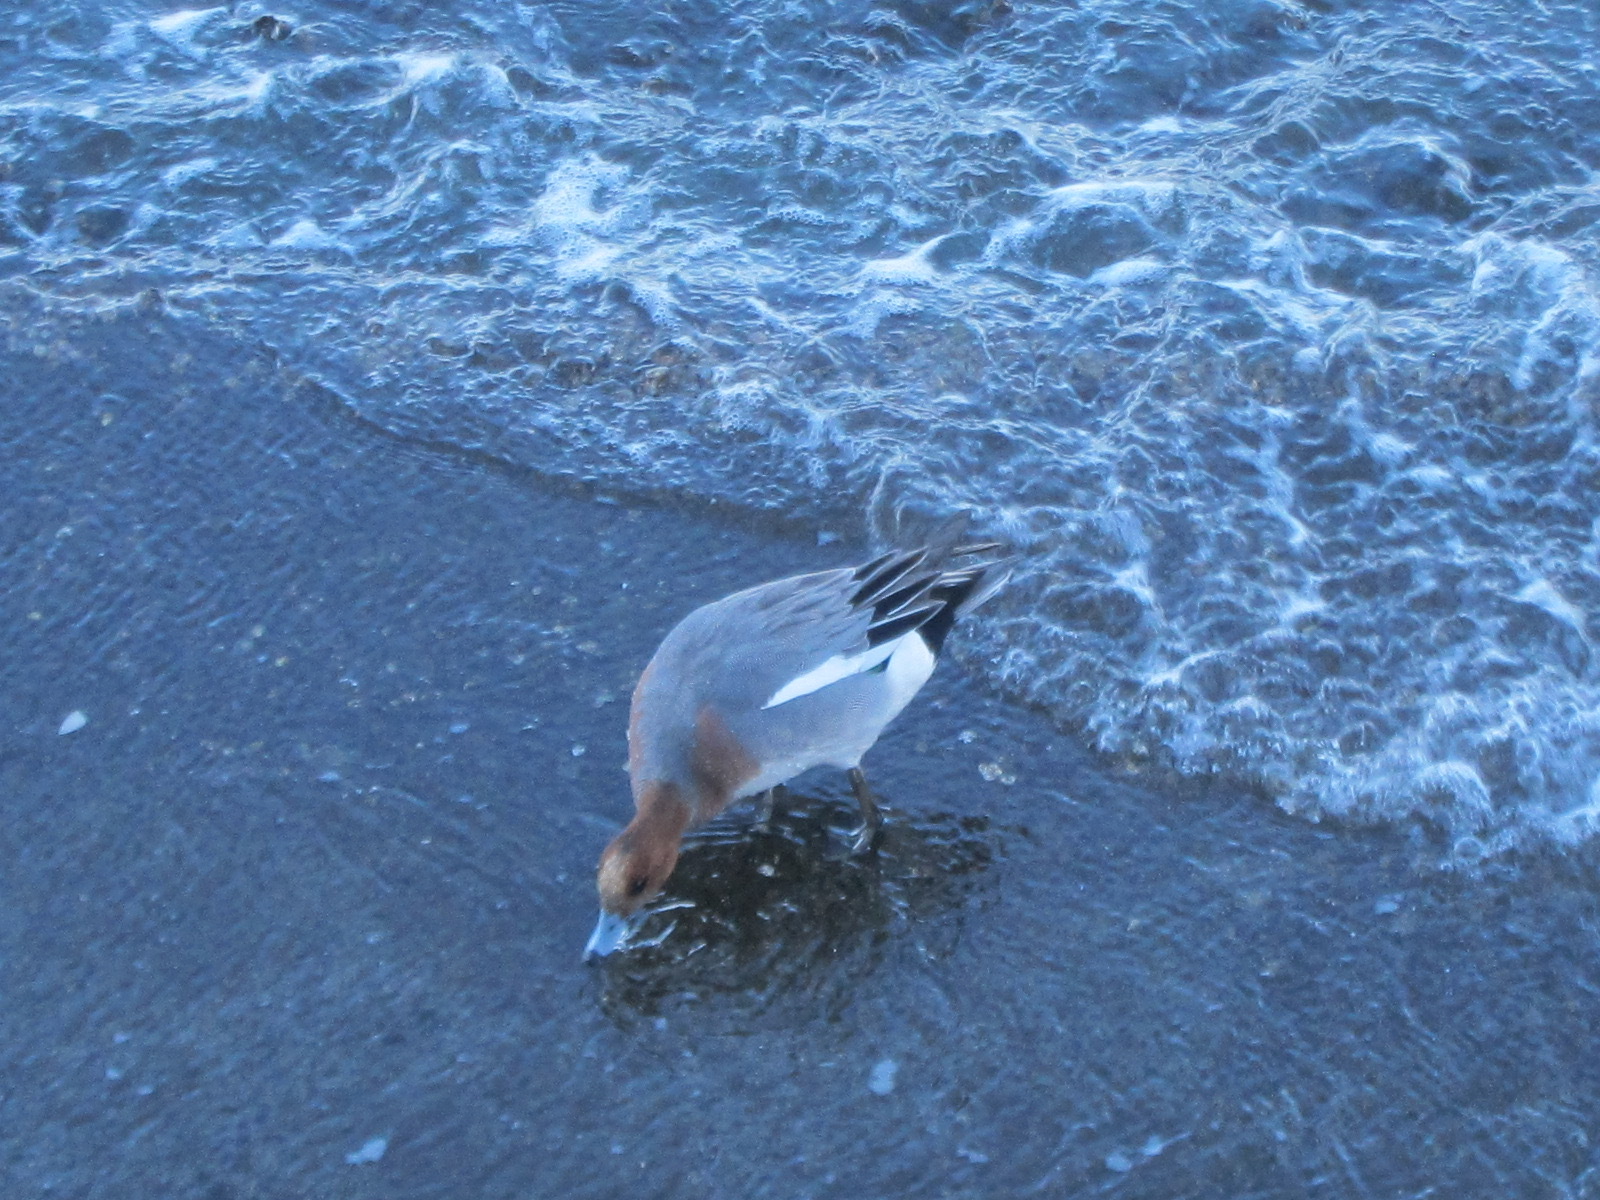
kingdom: Animalia
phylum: Chordata
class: Aves
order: Anseriformes
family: Anatidae
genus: Mareca
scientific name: Mareca penelope
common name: Eurasian wigeon
